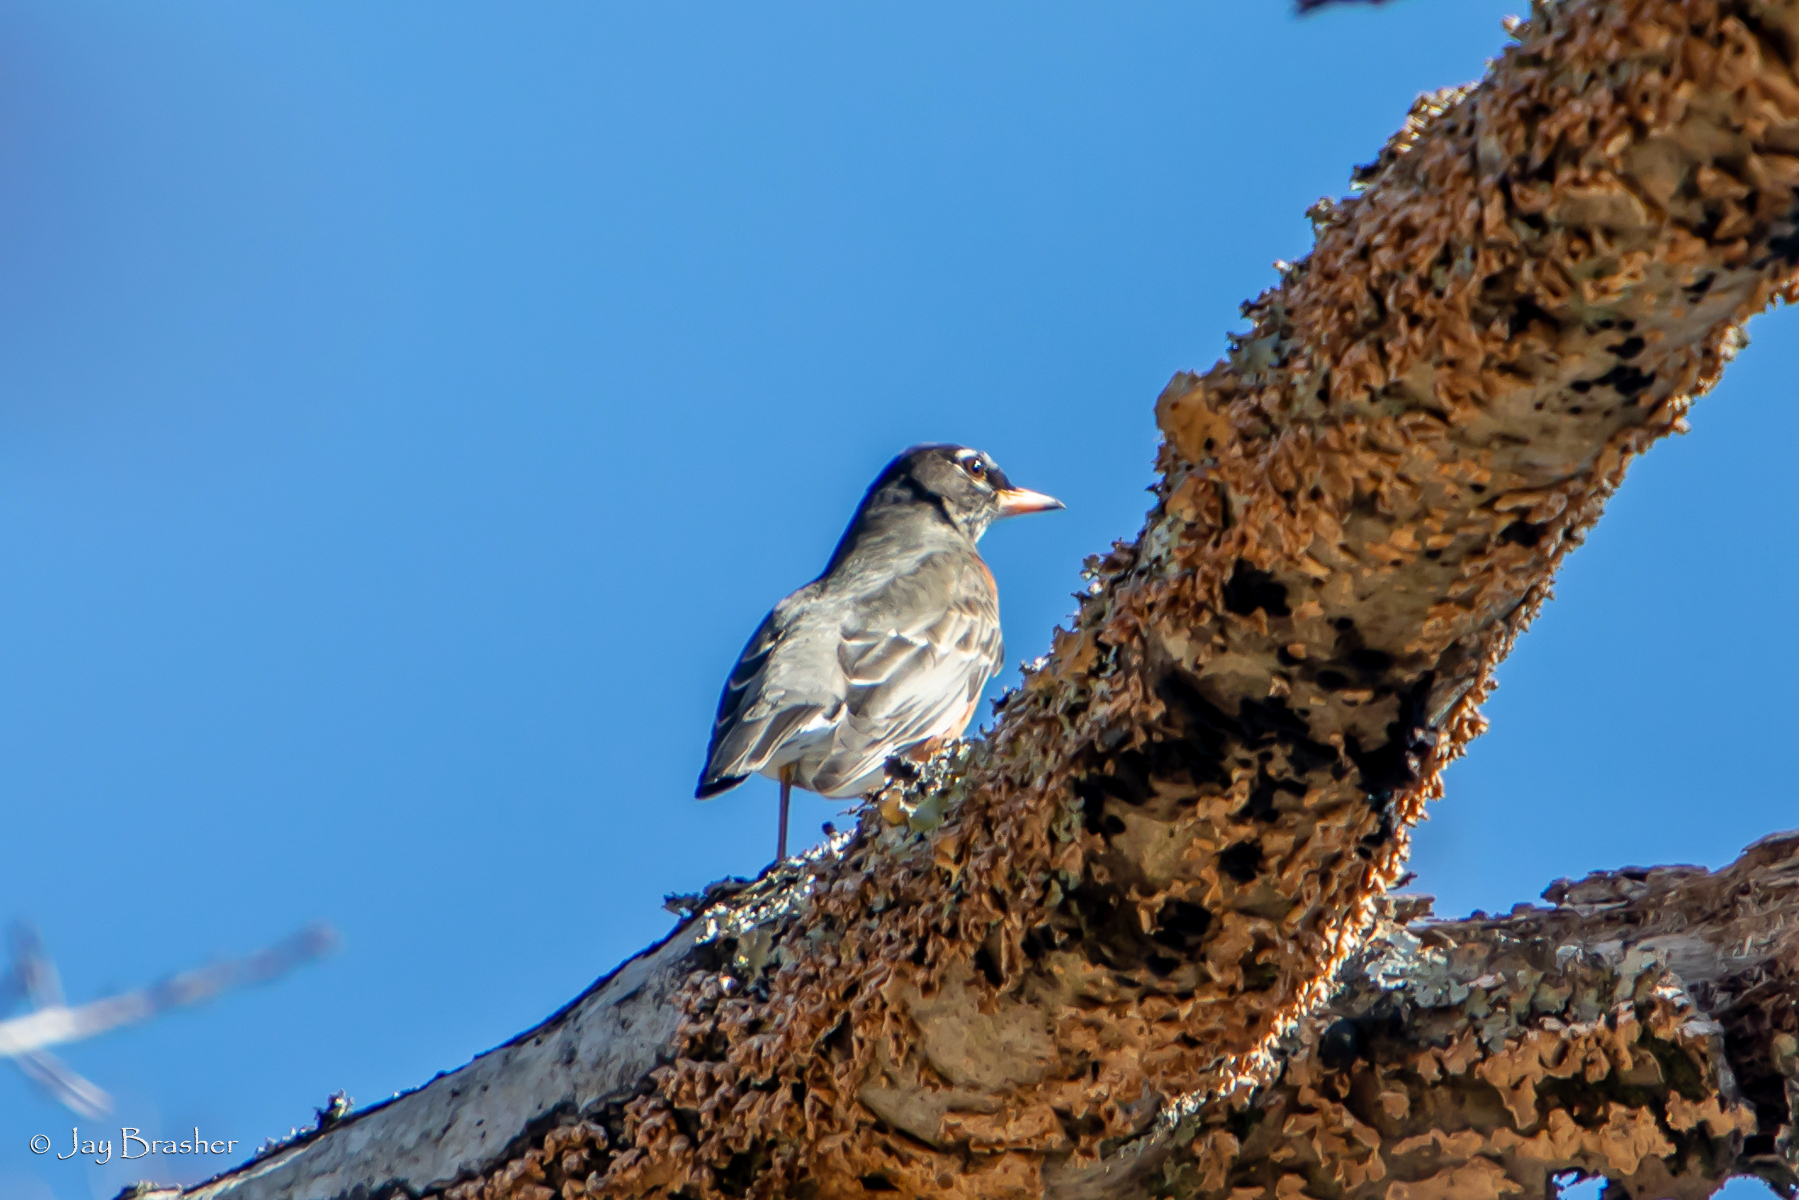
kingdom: Animalia
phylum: Chordata
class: Aves
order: Passeriformes
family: Turdidae
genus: Turdus
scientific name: Turdus migratorius
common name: American robin
